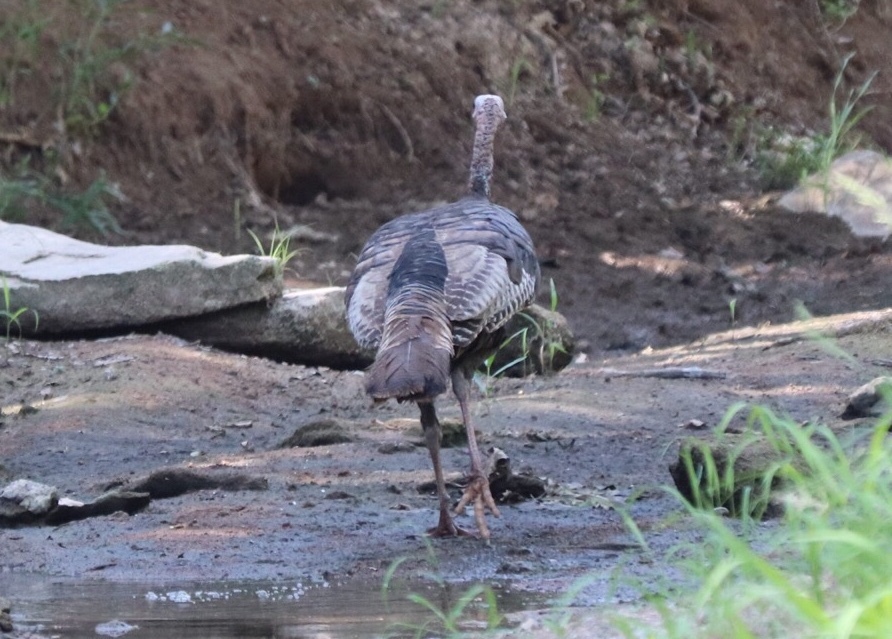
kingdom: Animalia
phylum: Chordata
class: Aves
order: Galliformes
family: Phasianidae
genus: Meleagris
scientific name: Meleagris gallopavo
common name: Wild turkey
